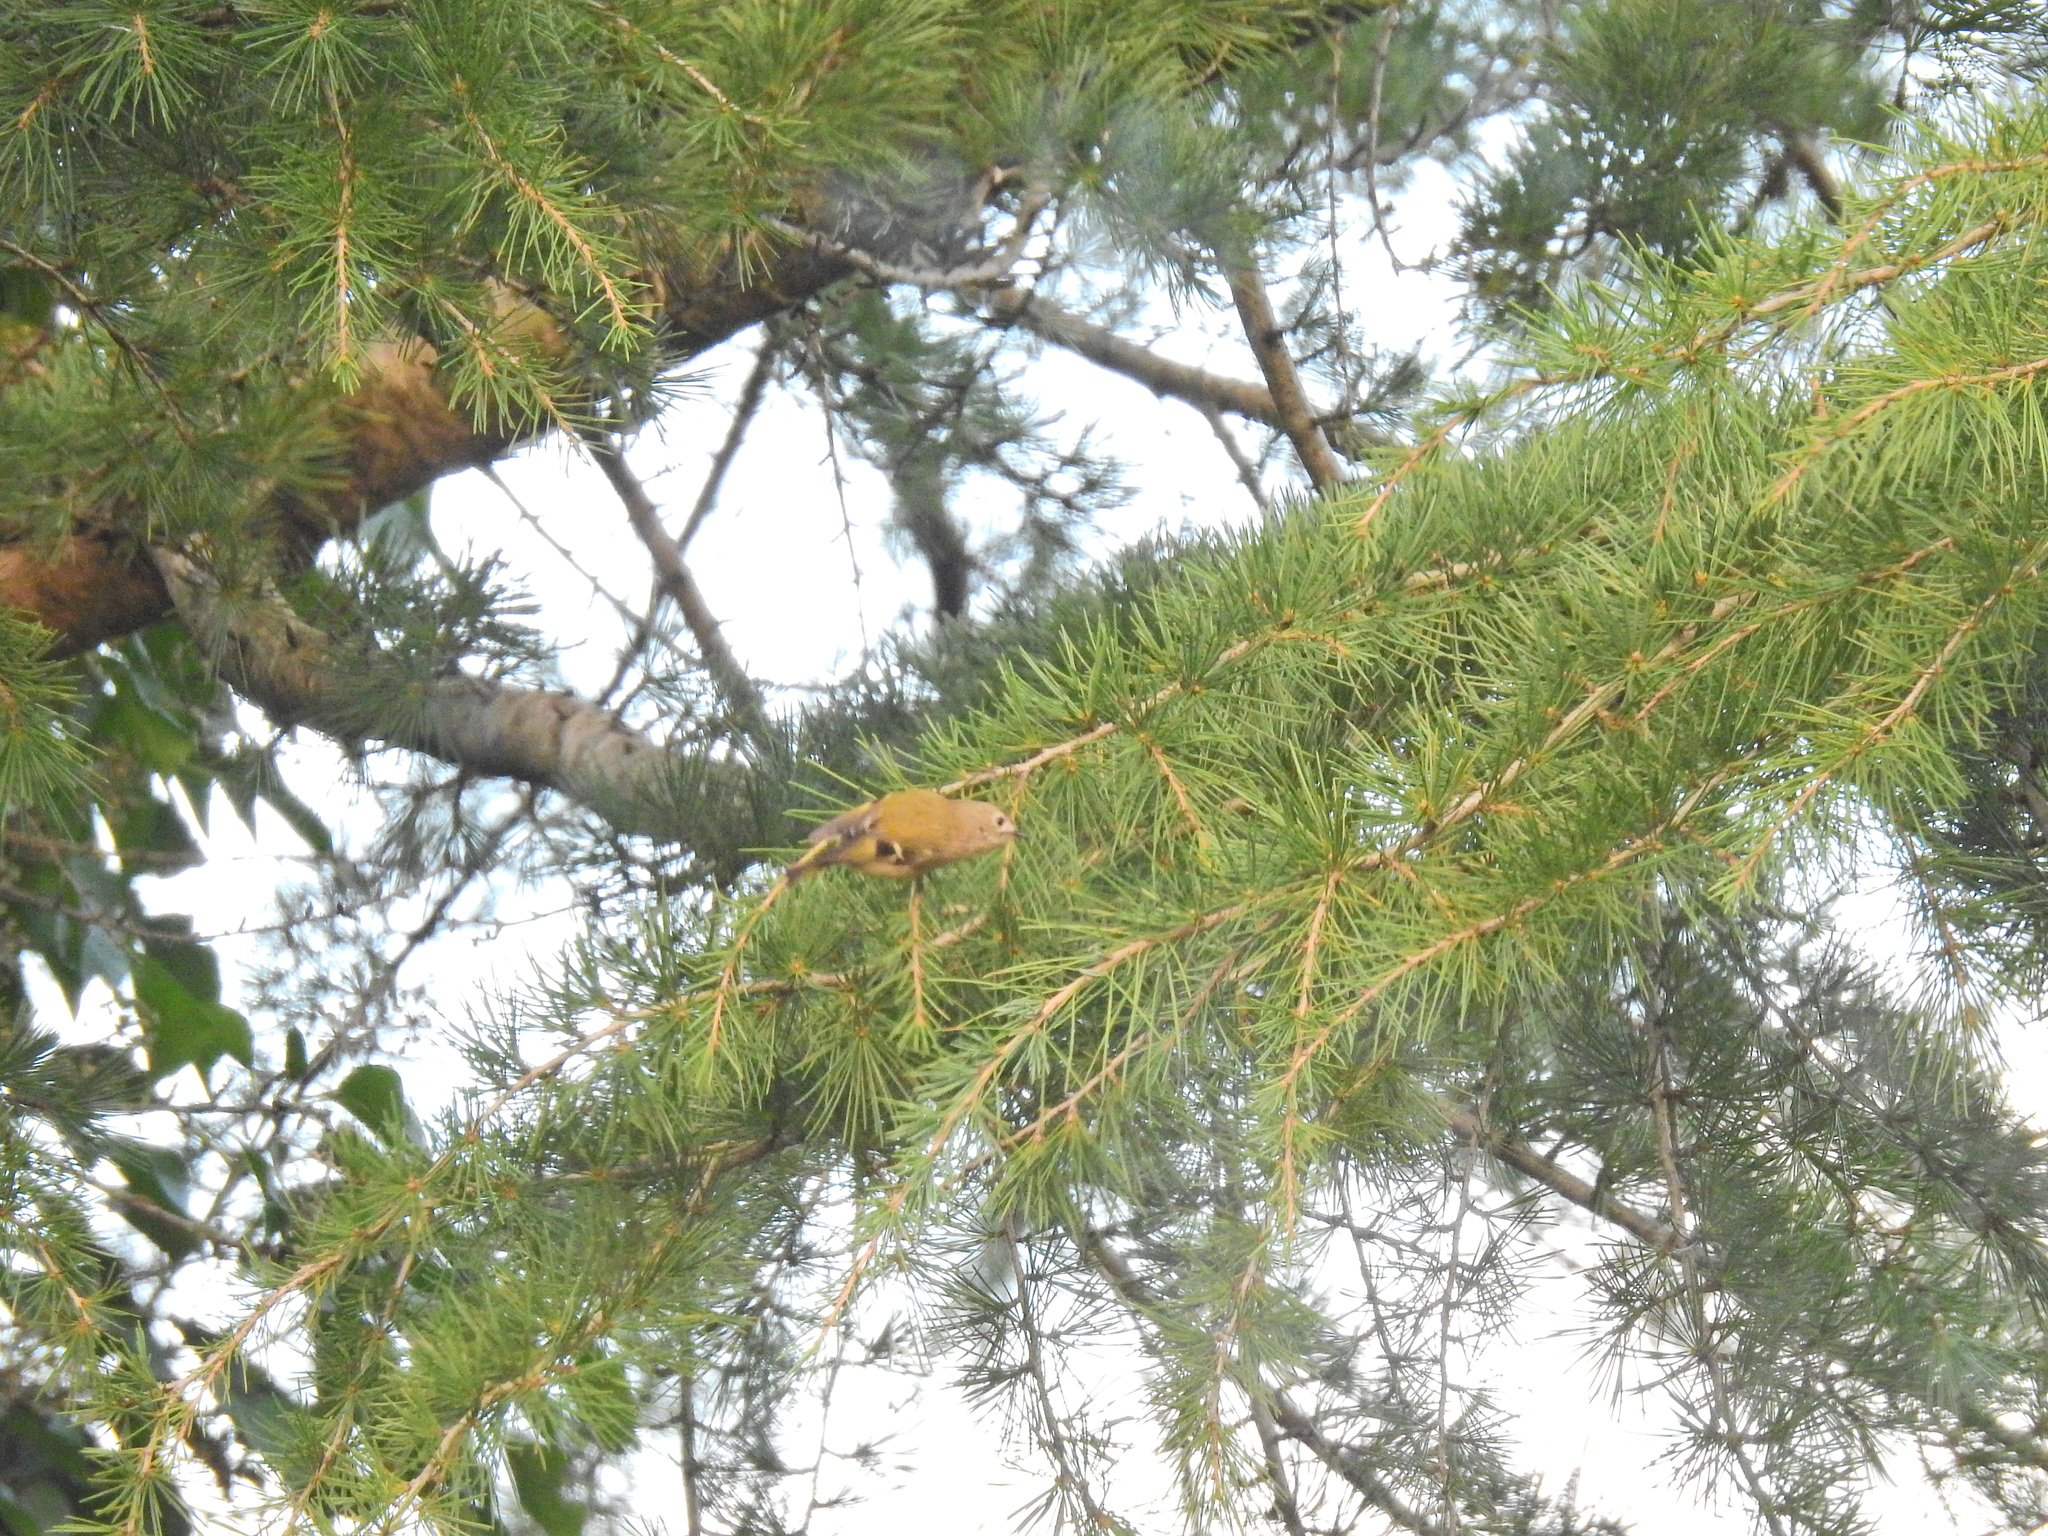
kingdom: Animalia
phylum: Chordata
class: Aves
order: Passeriformes
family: Regulidae
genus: Regulus
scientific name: Regulus regulus
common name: Goldcrest
